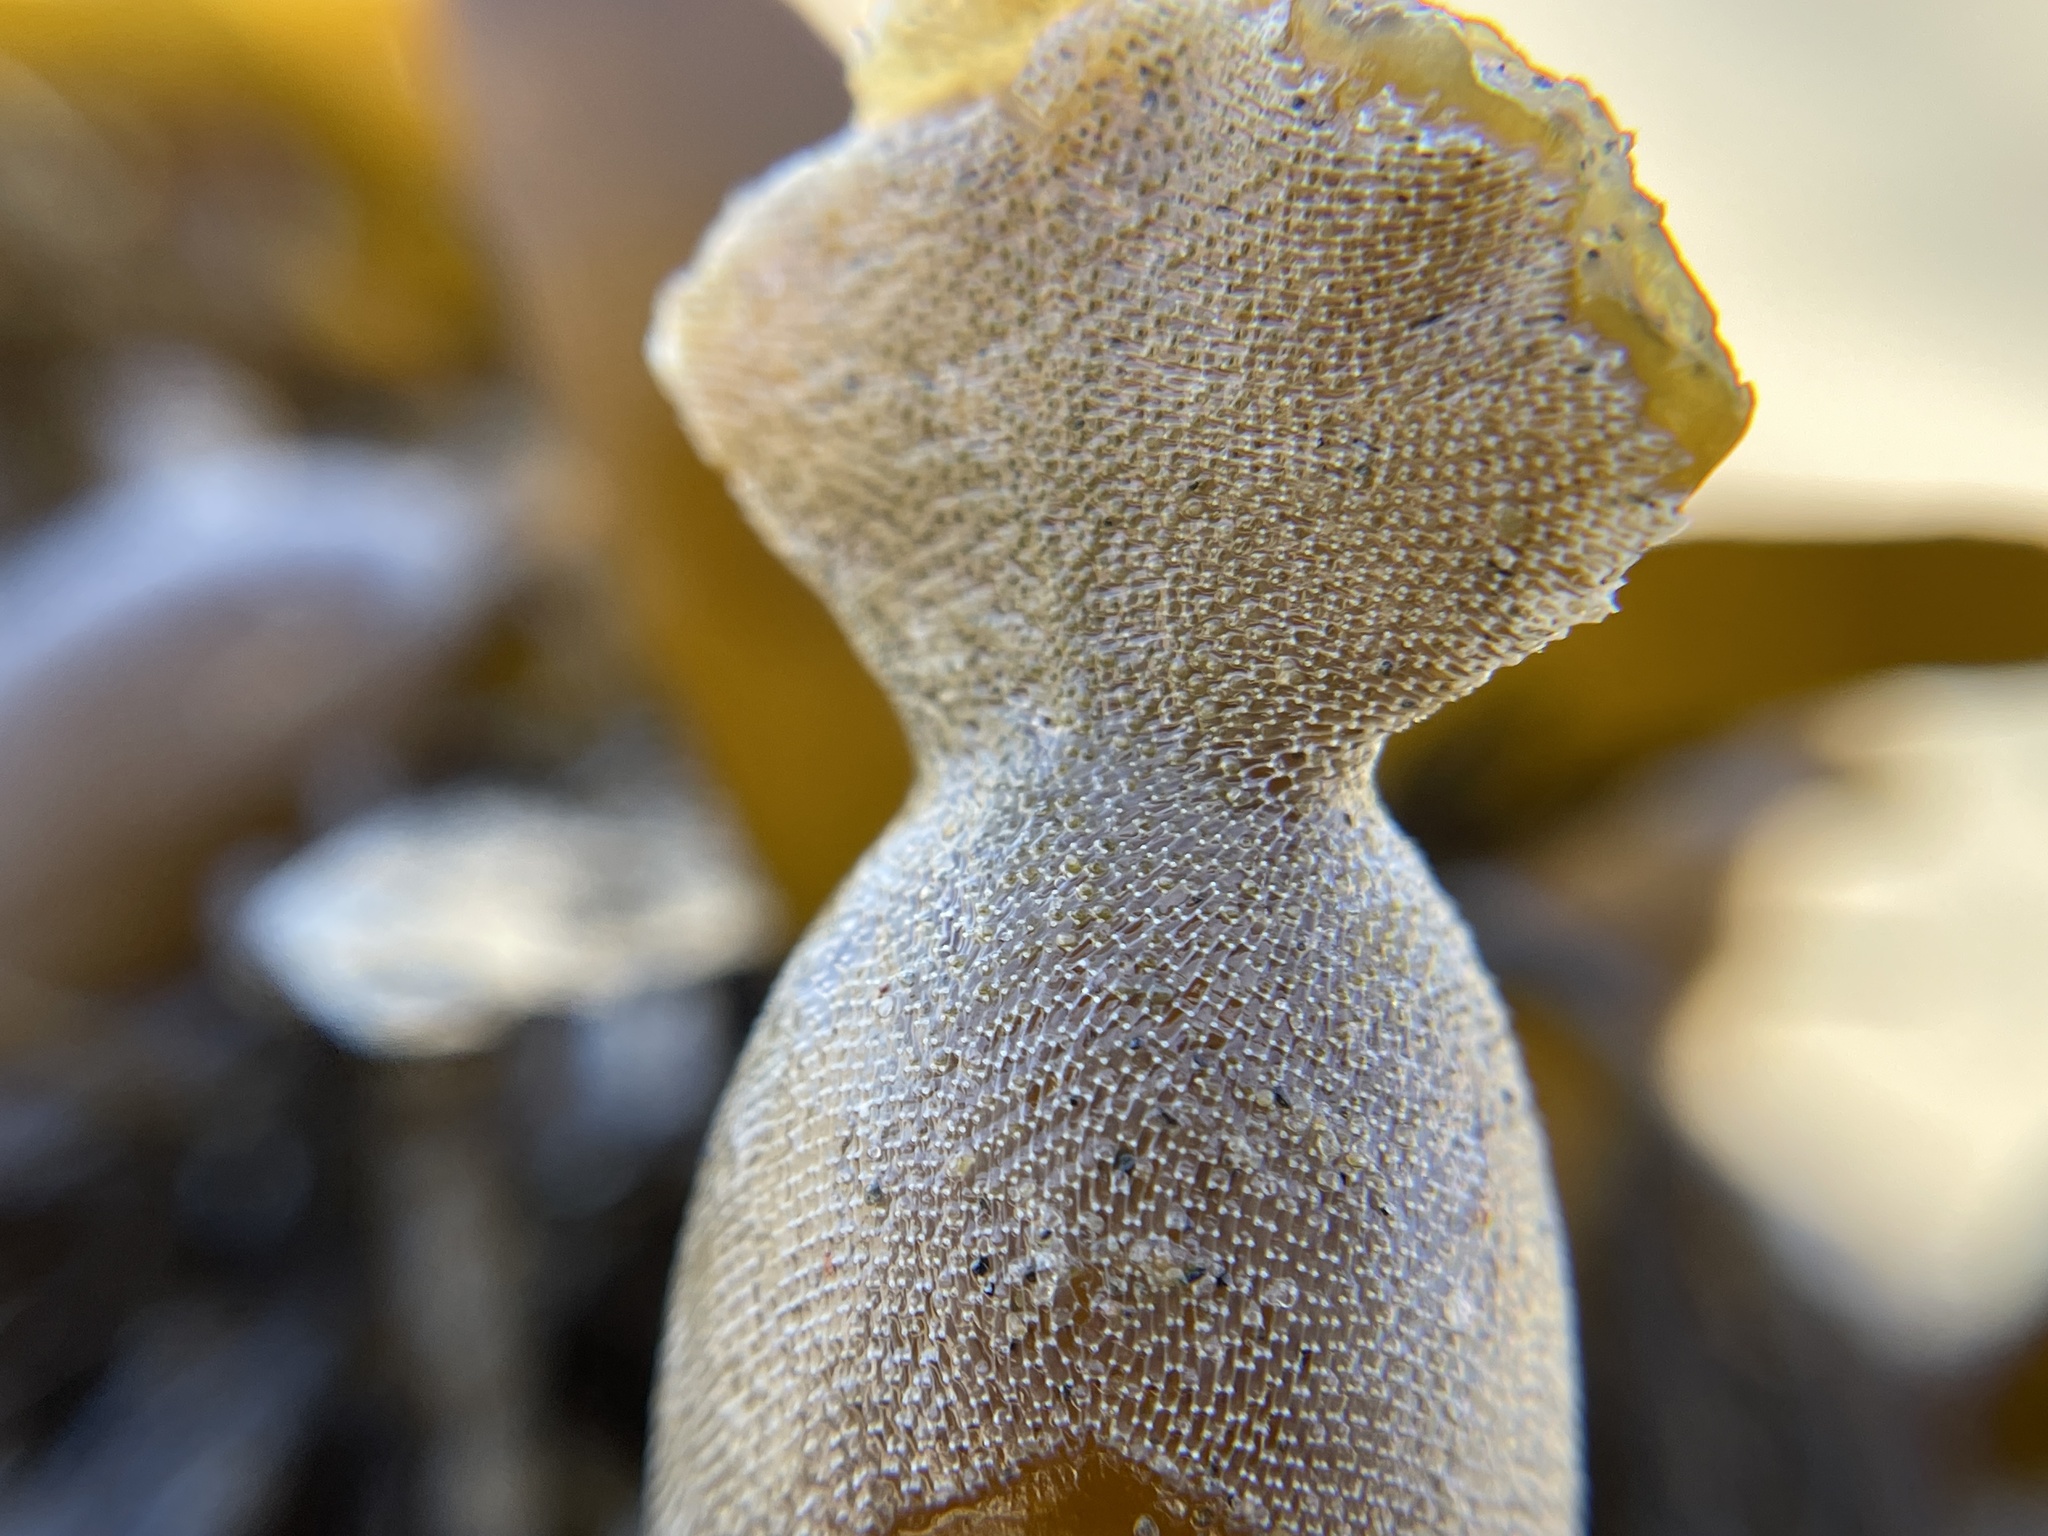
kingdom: Animalia
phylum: Bryozoa
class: Gymnolaemata
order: Cheilostomatida
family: Membraniporidae
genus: Membranipora
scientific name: Membranipora membranacea
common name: Sea mat
